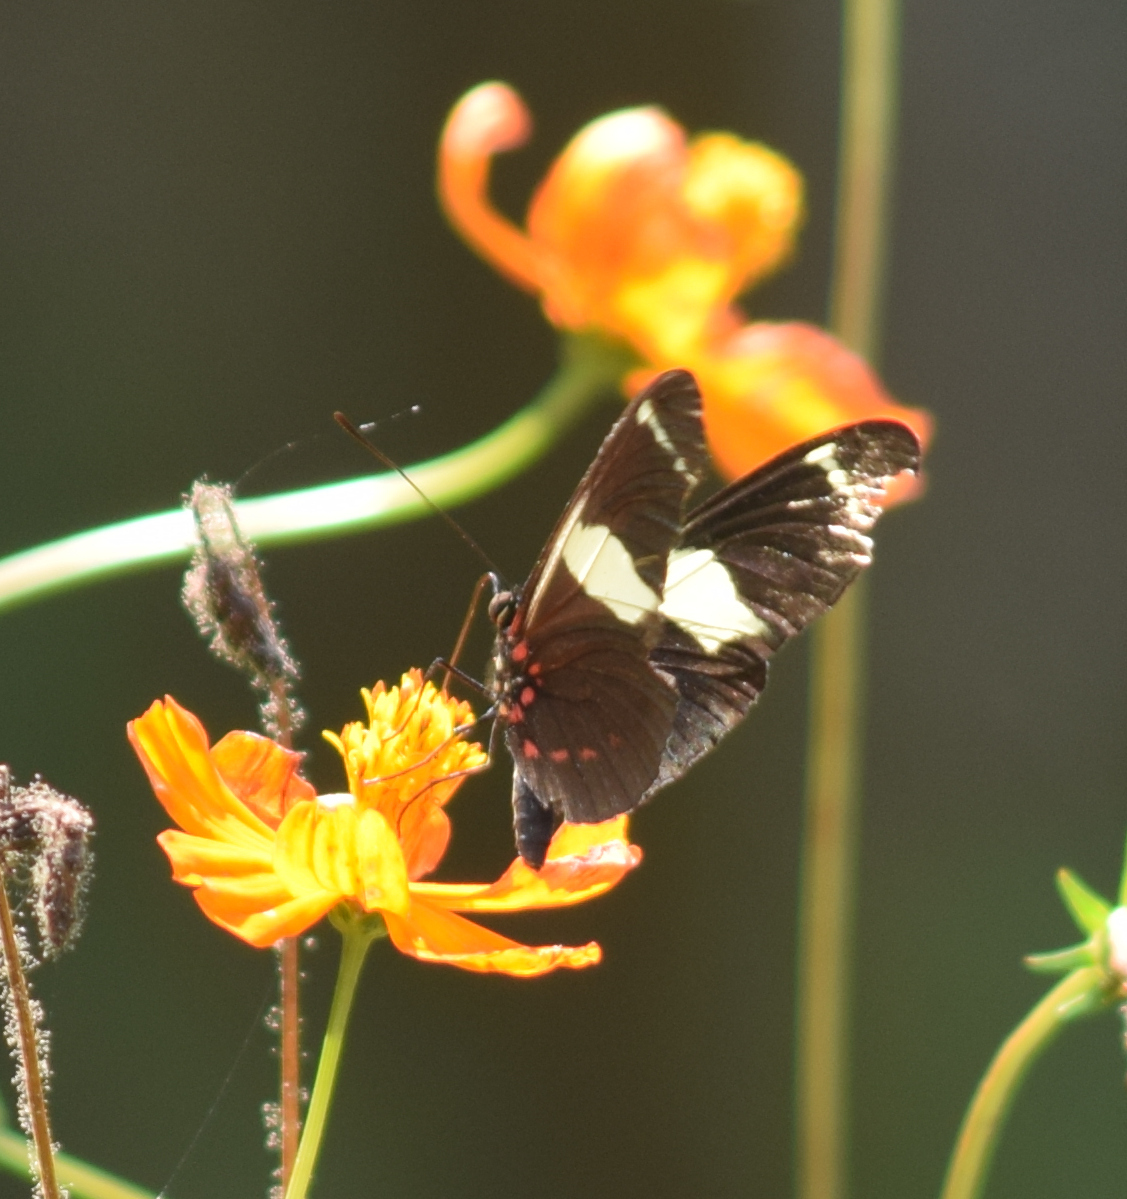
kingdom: Animalia
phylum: Arthropoda
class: Insecta
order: Lepidoptera
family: Nymphalidae
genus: Heliconius
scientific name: Heliconius sara
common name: Sara longwing
